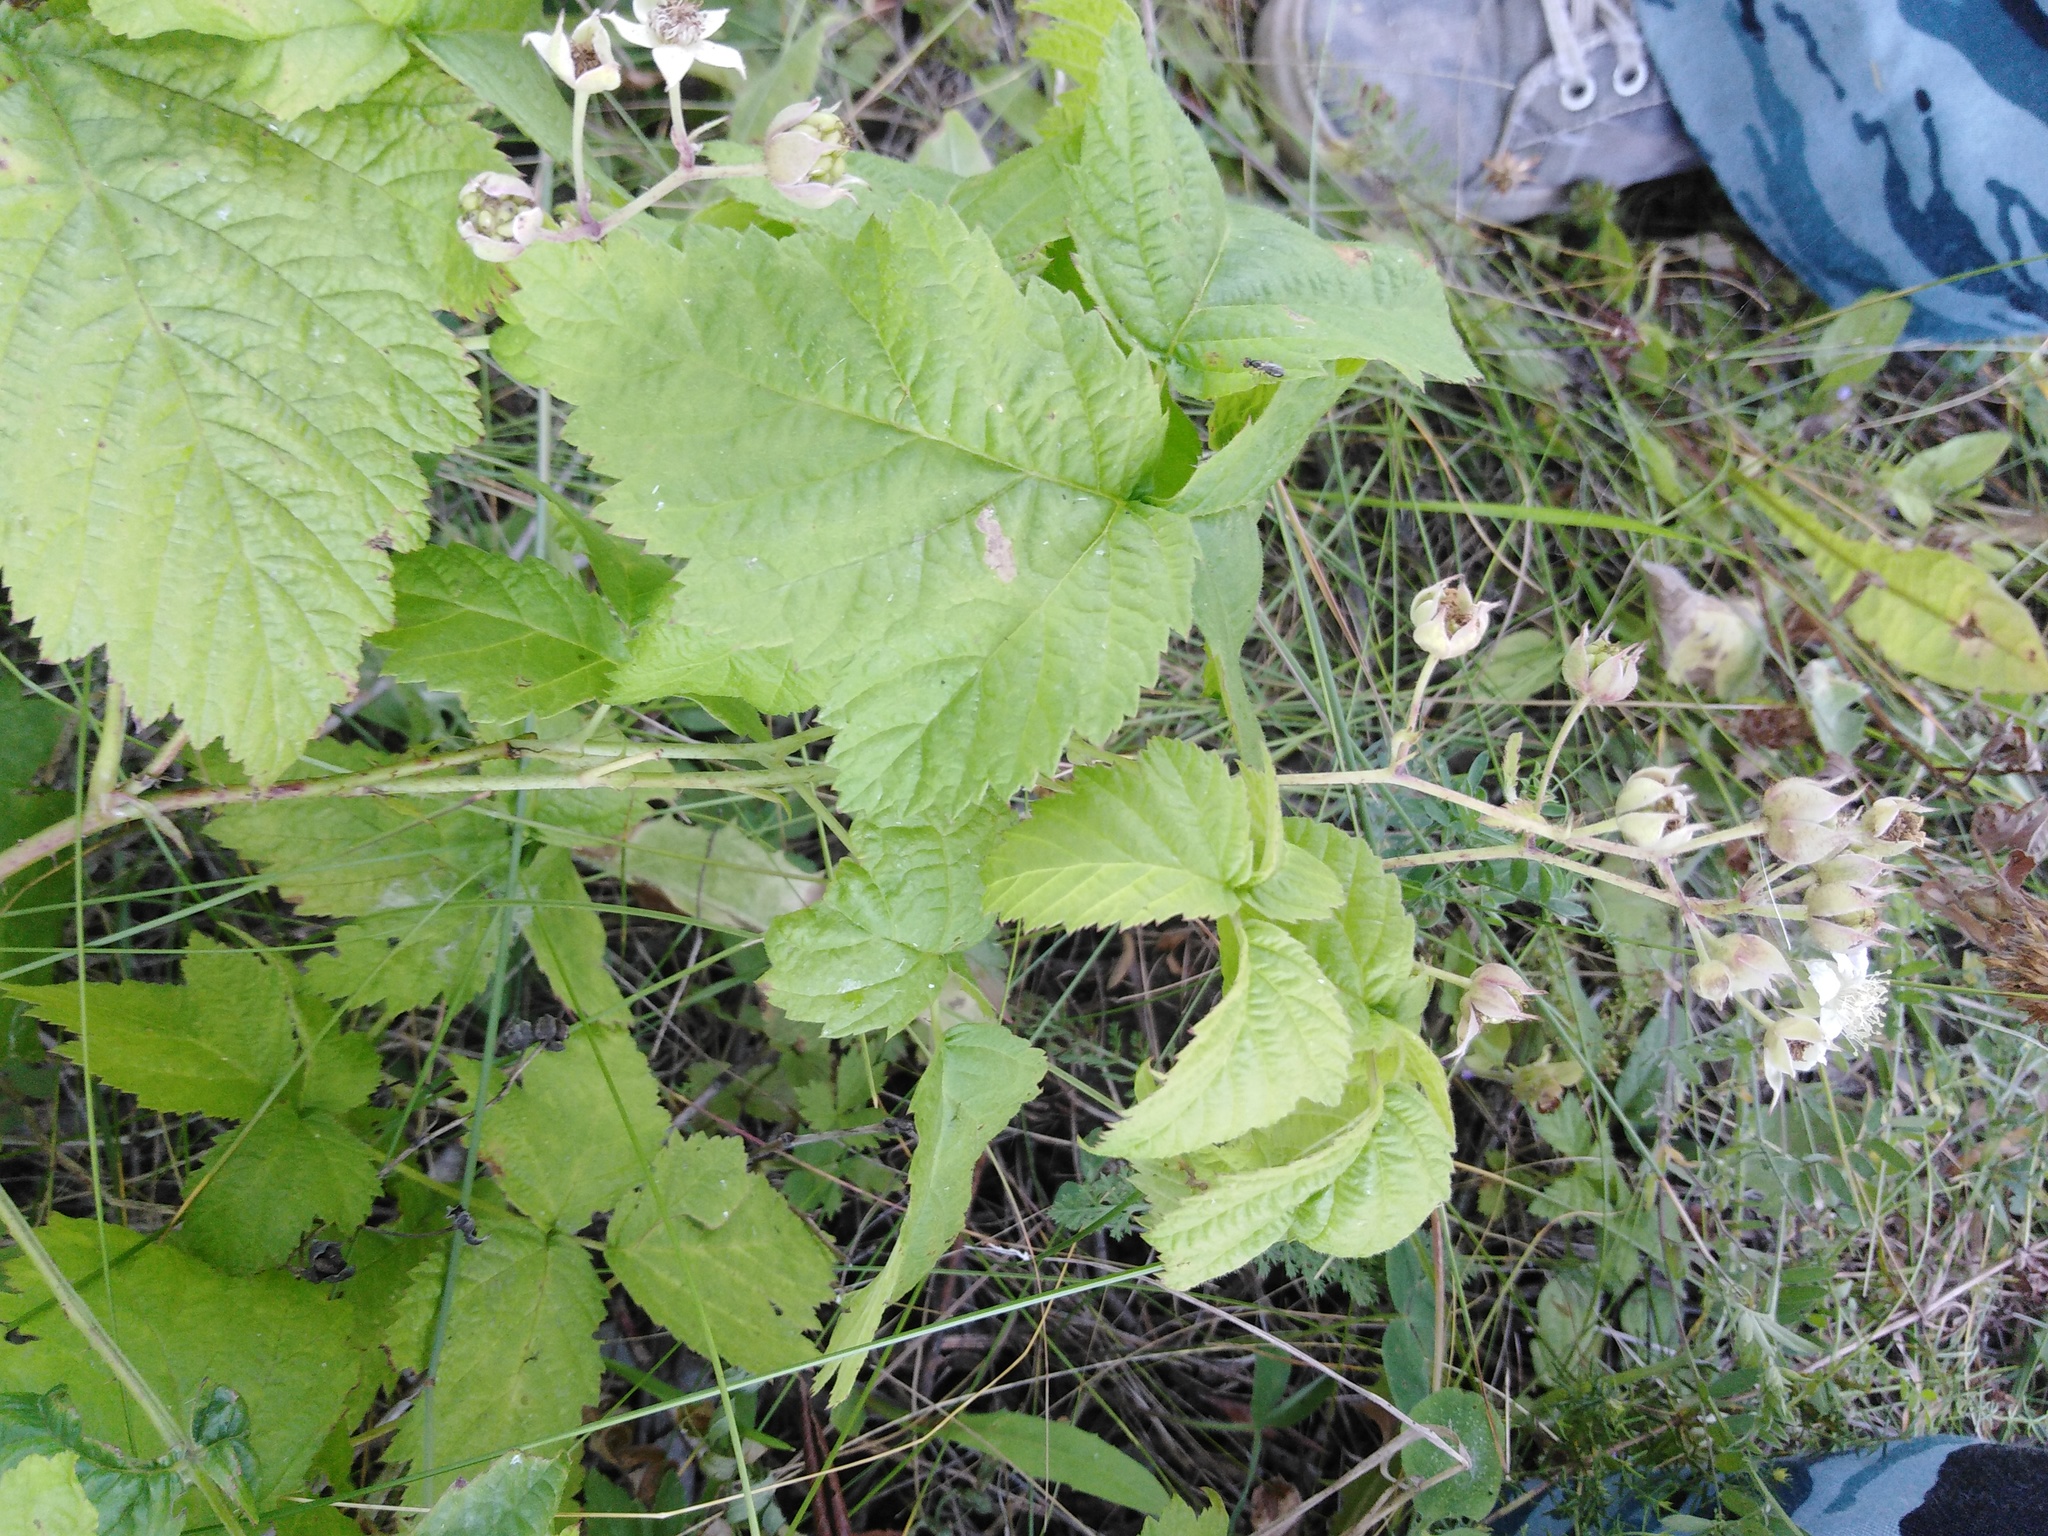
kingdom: Plantae
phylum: Tracheophyta
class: Magnoliopsida
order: Rosales
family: Rosaceae
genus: Rubus
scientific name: Rubus caesius
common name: Dewberry
